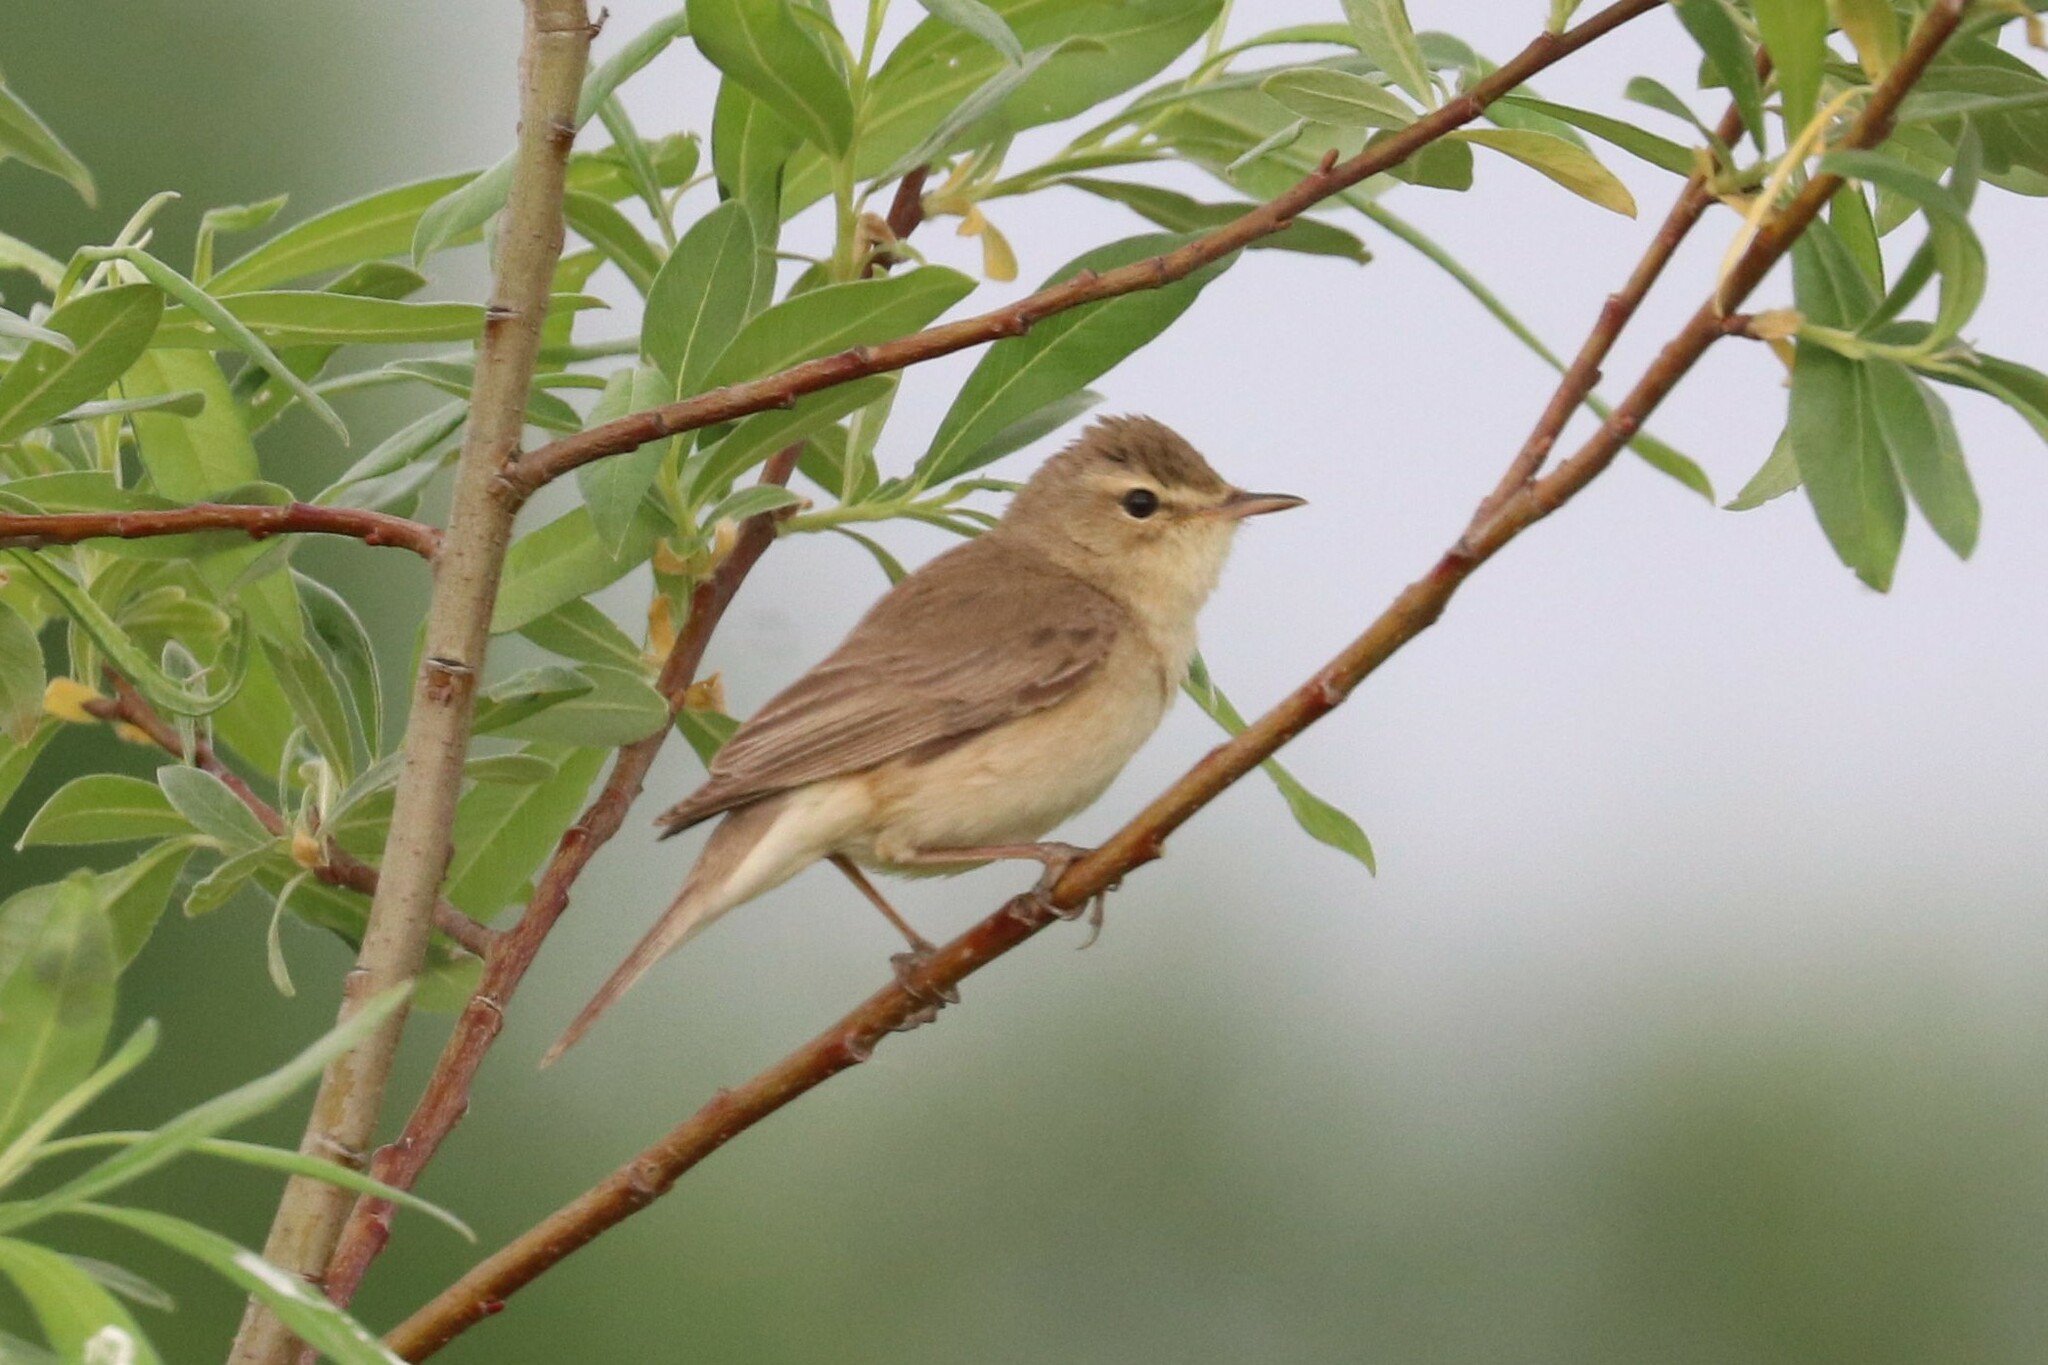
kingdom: Animalia
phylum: Chordata
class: Aves
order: Passeriformes
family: Acrocephalidae
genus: Iduna
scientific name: Iduna caligata
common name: Booted warbler
